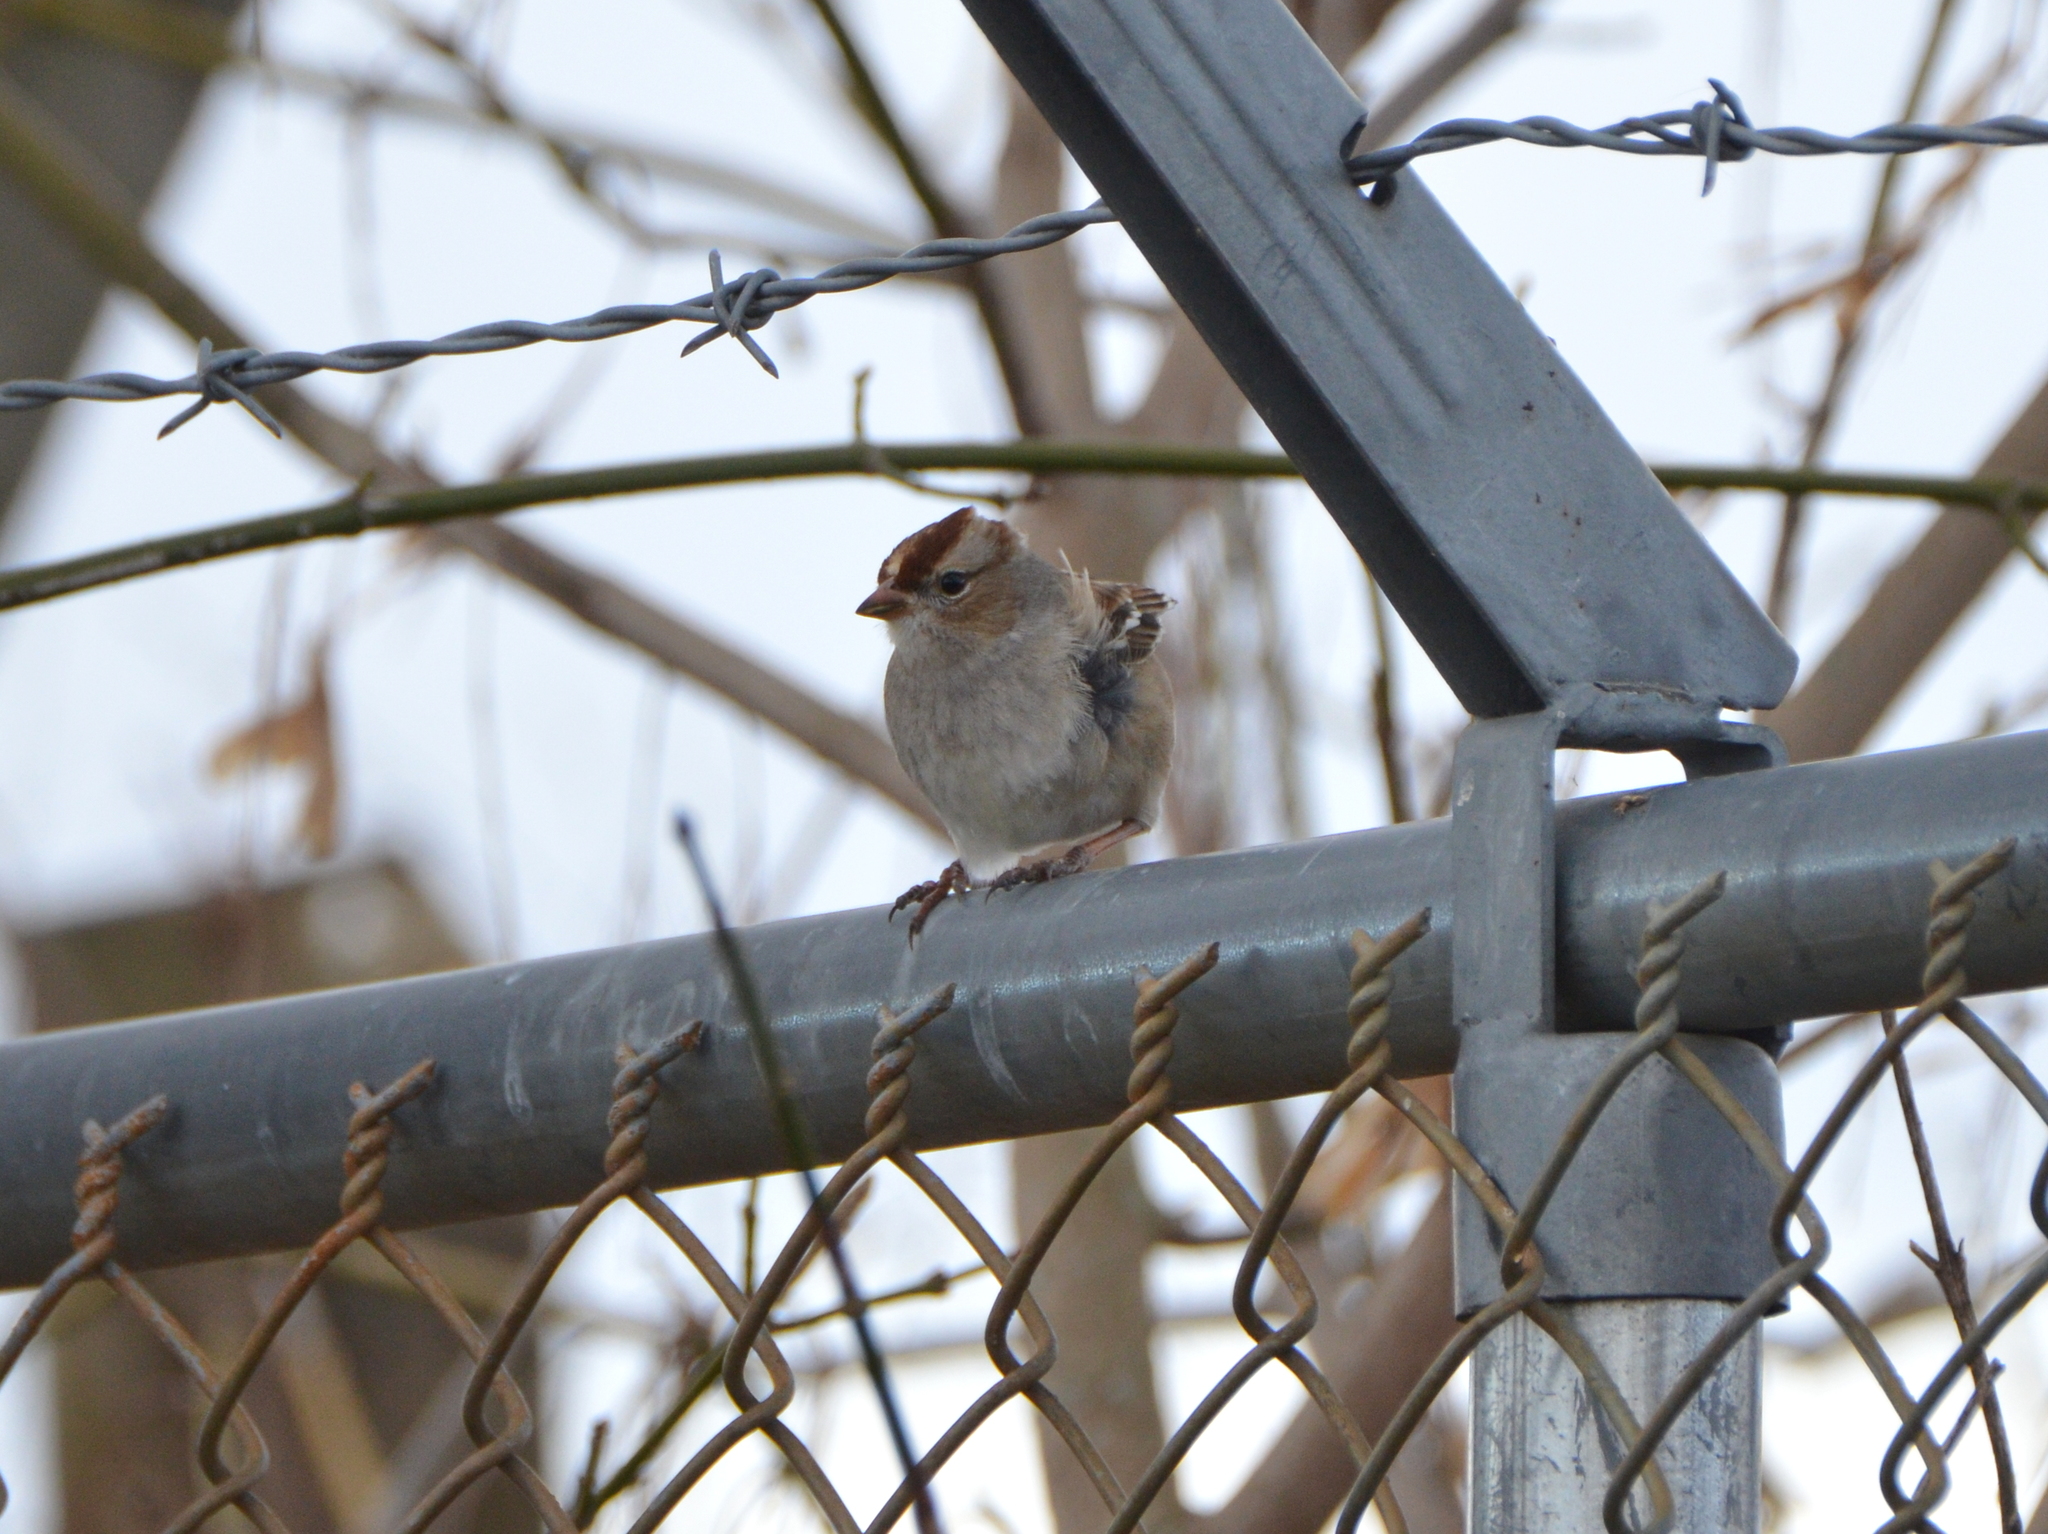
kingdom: Animalia
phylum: Chordata
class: Aves
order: Passeriformes
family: Passerellidae
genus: Zonotrichia
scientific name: Zonotrichia leucophrys
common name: White-crowned sparrow
